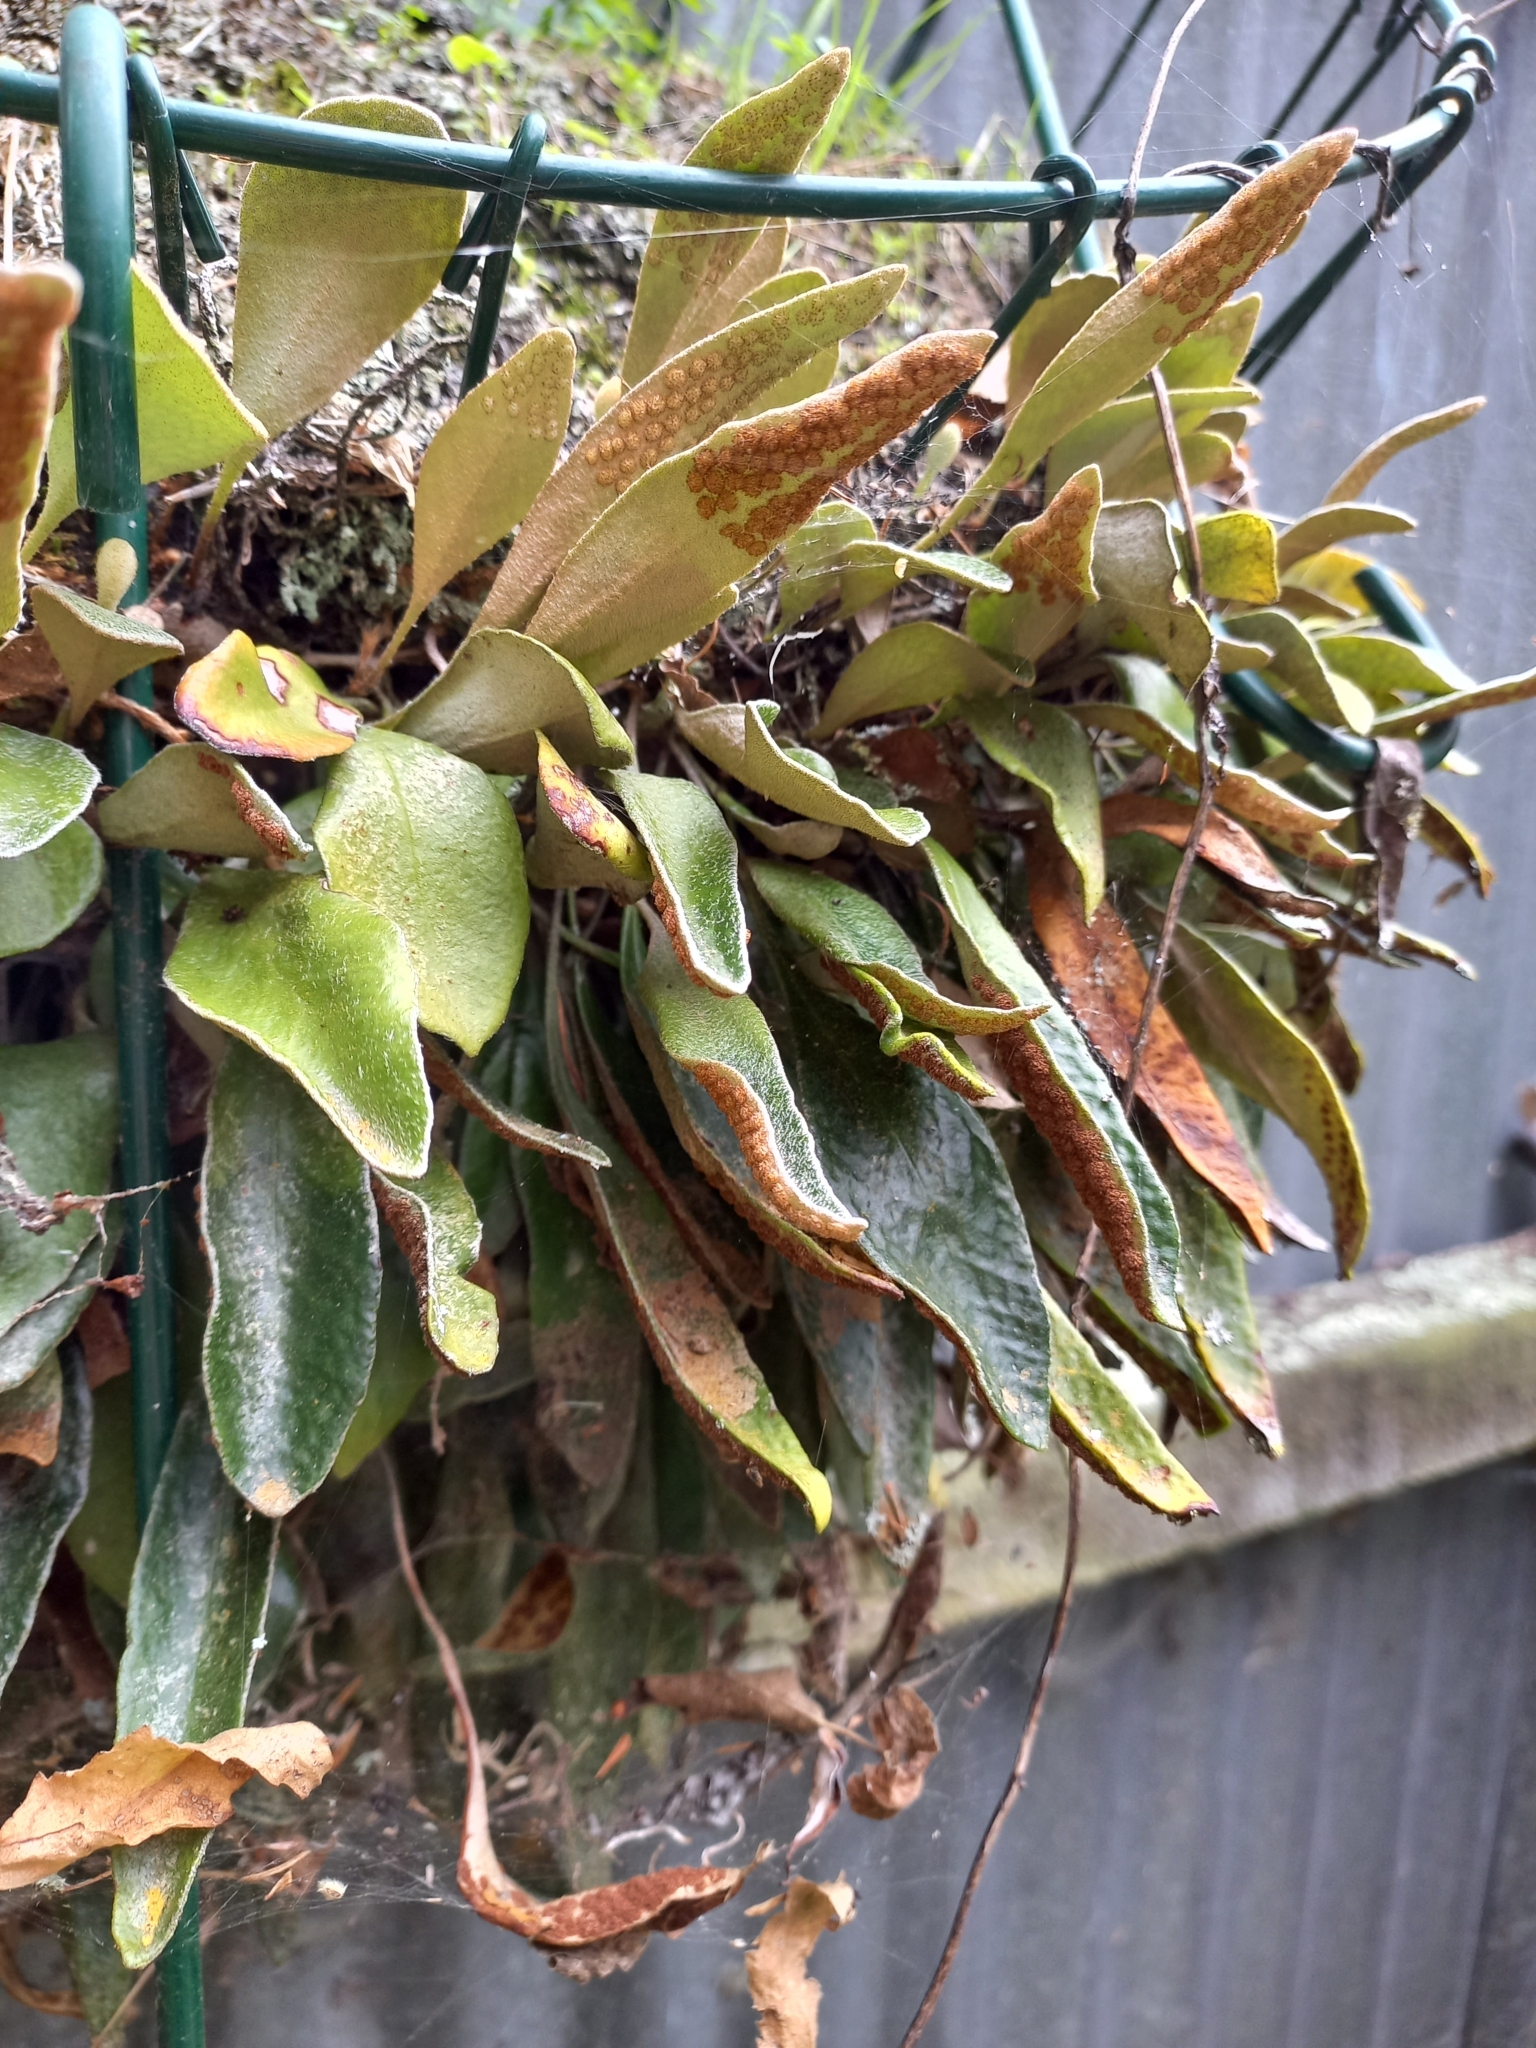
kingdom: Plantae
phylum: Tracheophyta
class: Polypodiopsida
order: Polypodiales
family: Polypodiaceae
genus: Pyrrosia
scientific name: Pyrrosia eleagnifolia
